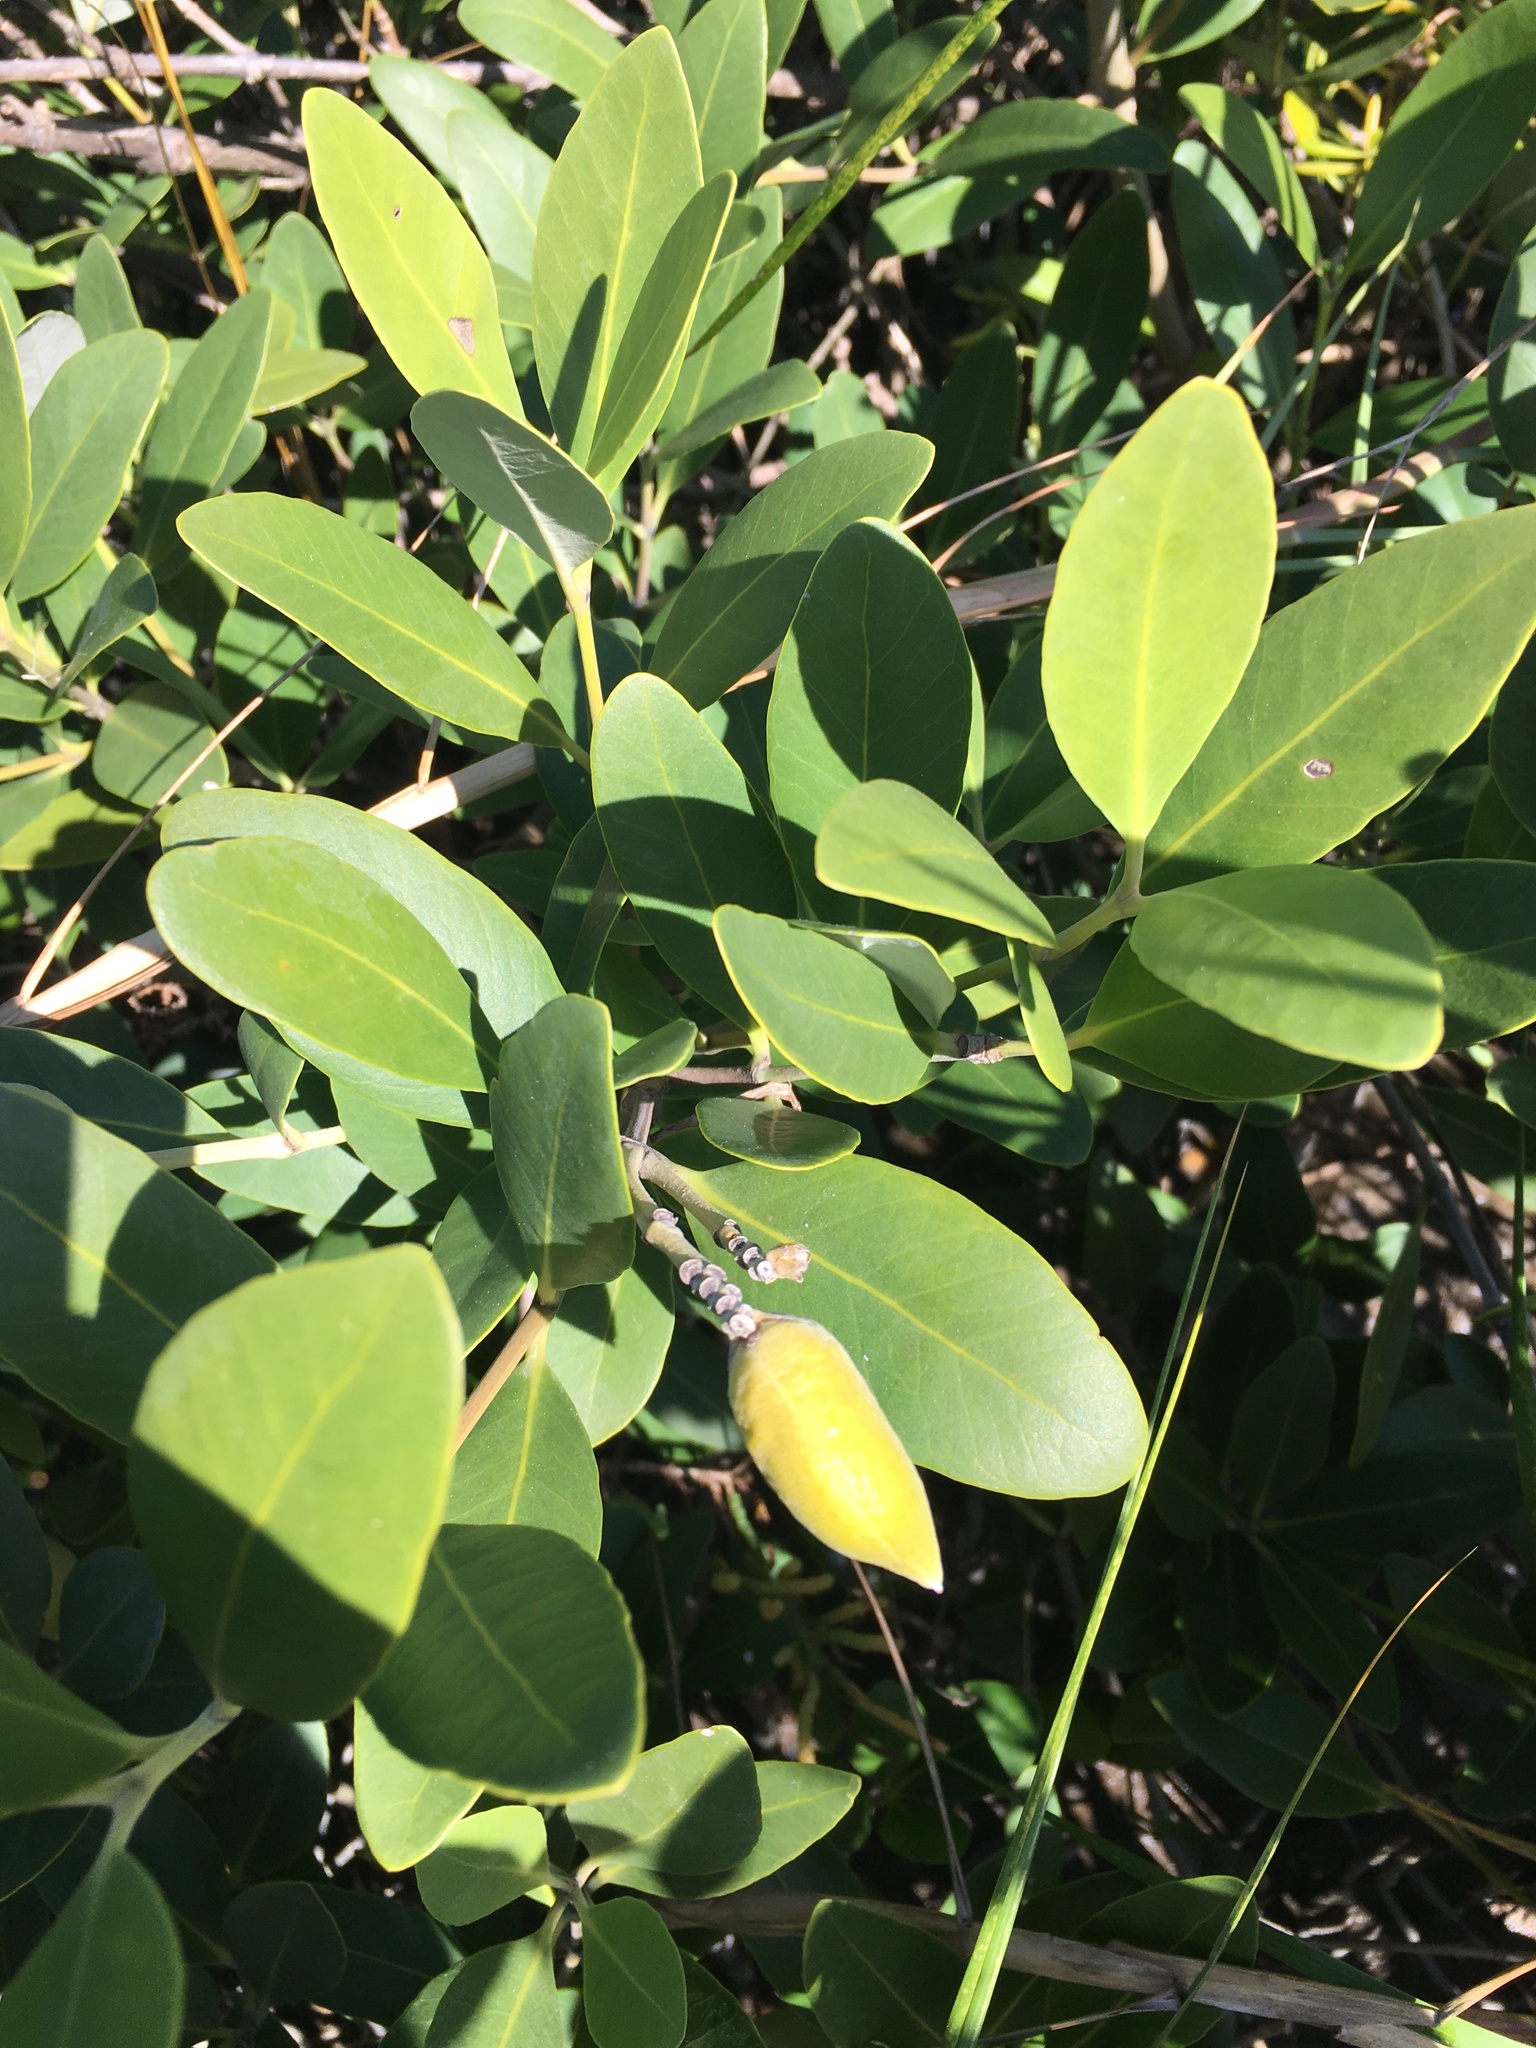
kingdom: Plantae
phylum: Tracheophyta
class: Magnoliopsida
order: Lamiales
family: Acanthaceae
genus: Avicennia
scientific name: Avicennia germinans
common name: Black mangrove
